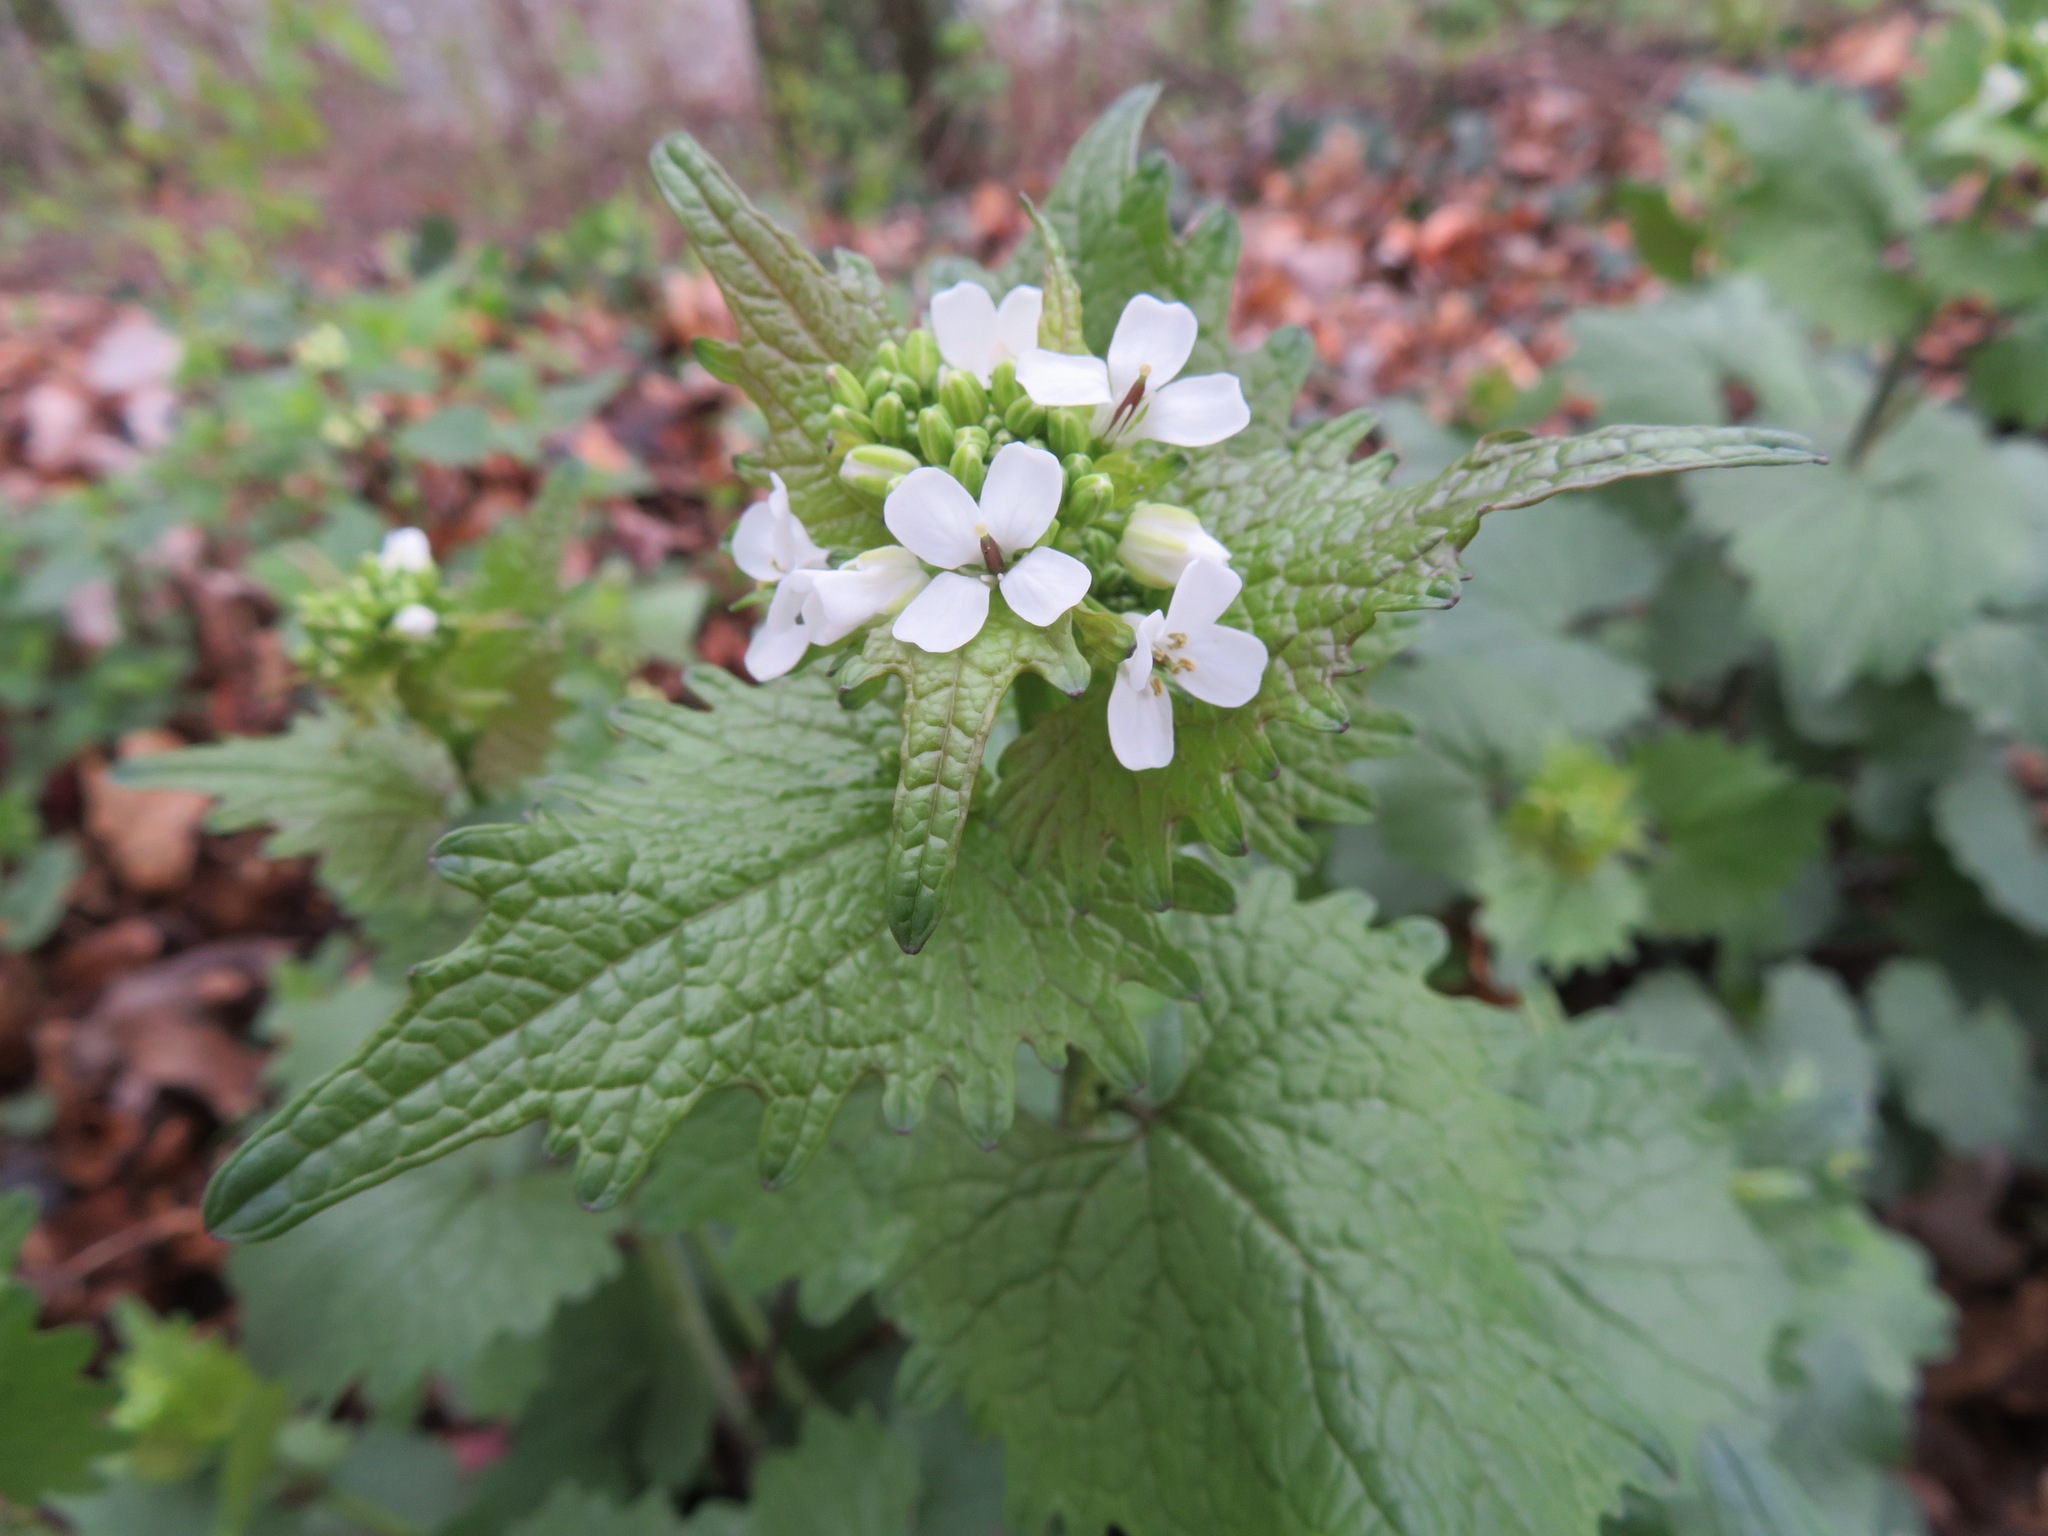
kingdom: Plantae
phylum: Tracheophyta
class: Magnoliopsida
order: Brassicales
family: Brassicaceae
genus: Alliaria
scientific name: Alliaria petiolata
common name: Garlic mustard
